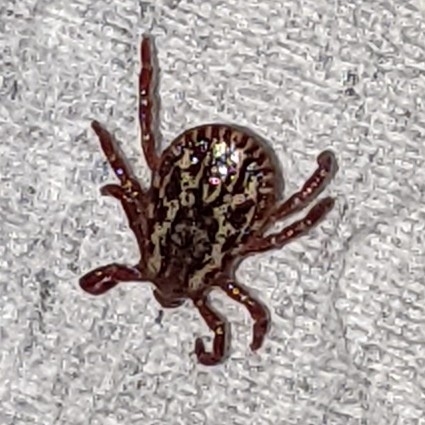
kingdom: Animalia
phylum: Arthropoda
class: Arachnida
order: Ixodida
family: Ixodidae
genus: Dermacentor
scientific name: Dermacentor variabilis
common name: American dog tick
